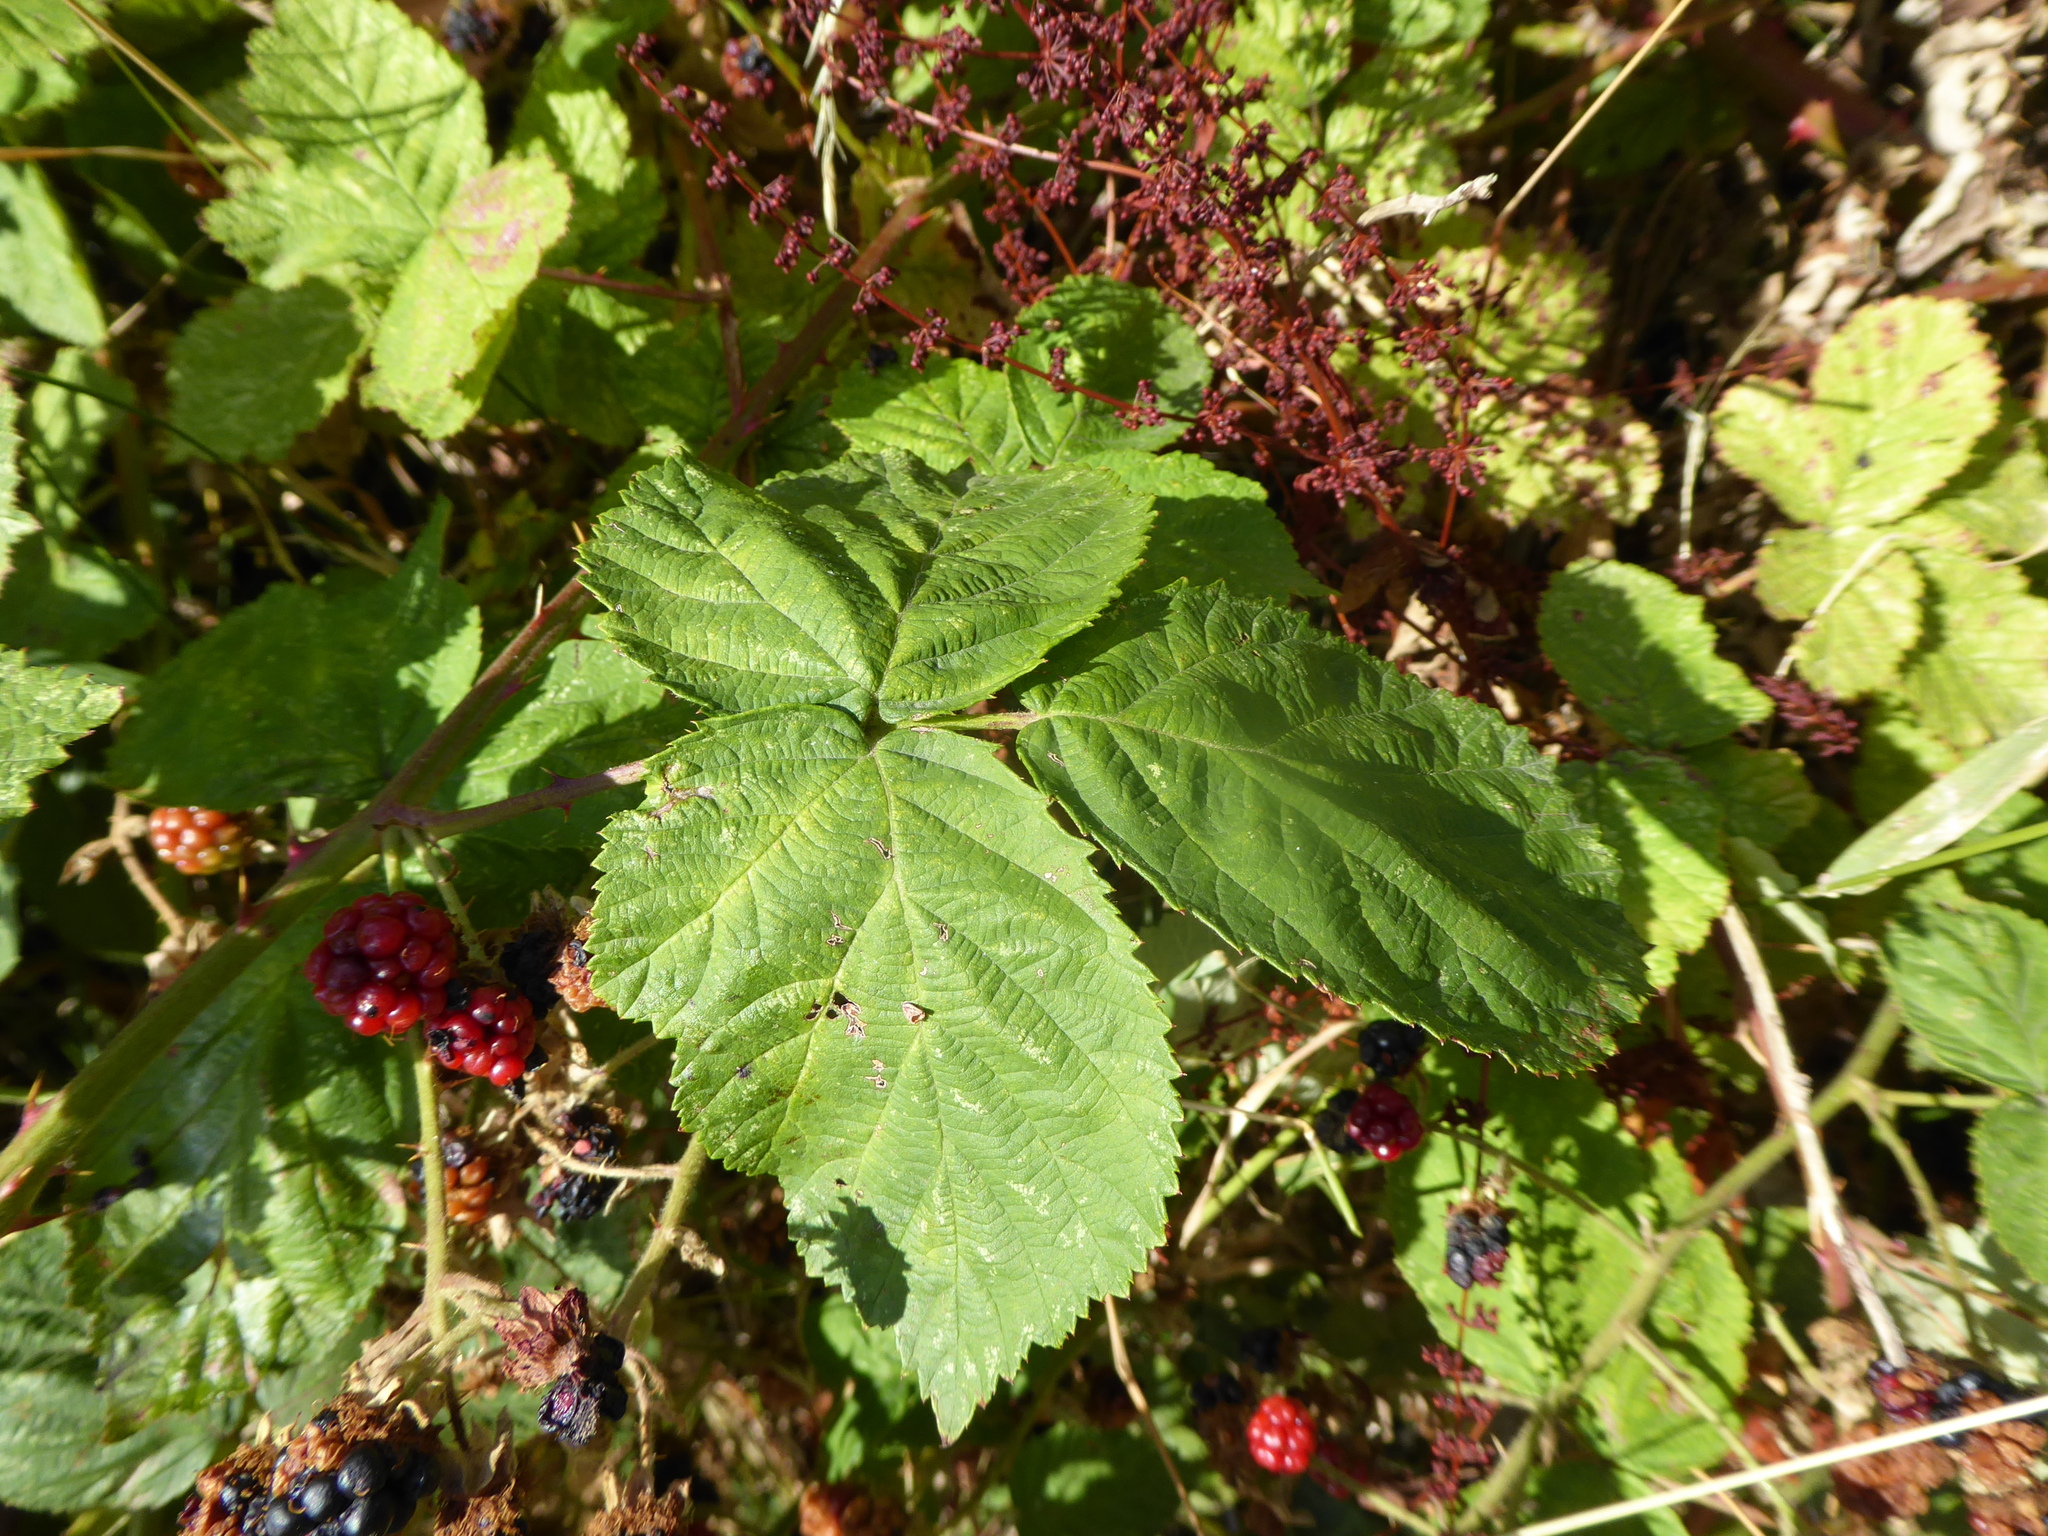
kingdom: Plantae
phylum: Tracheophyta
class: Magnoliopsida
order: Rosales
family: Rosaceae
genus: Rubus
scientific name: Rubus
